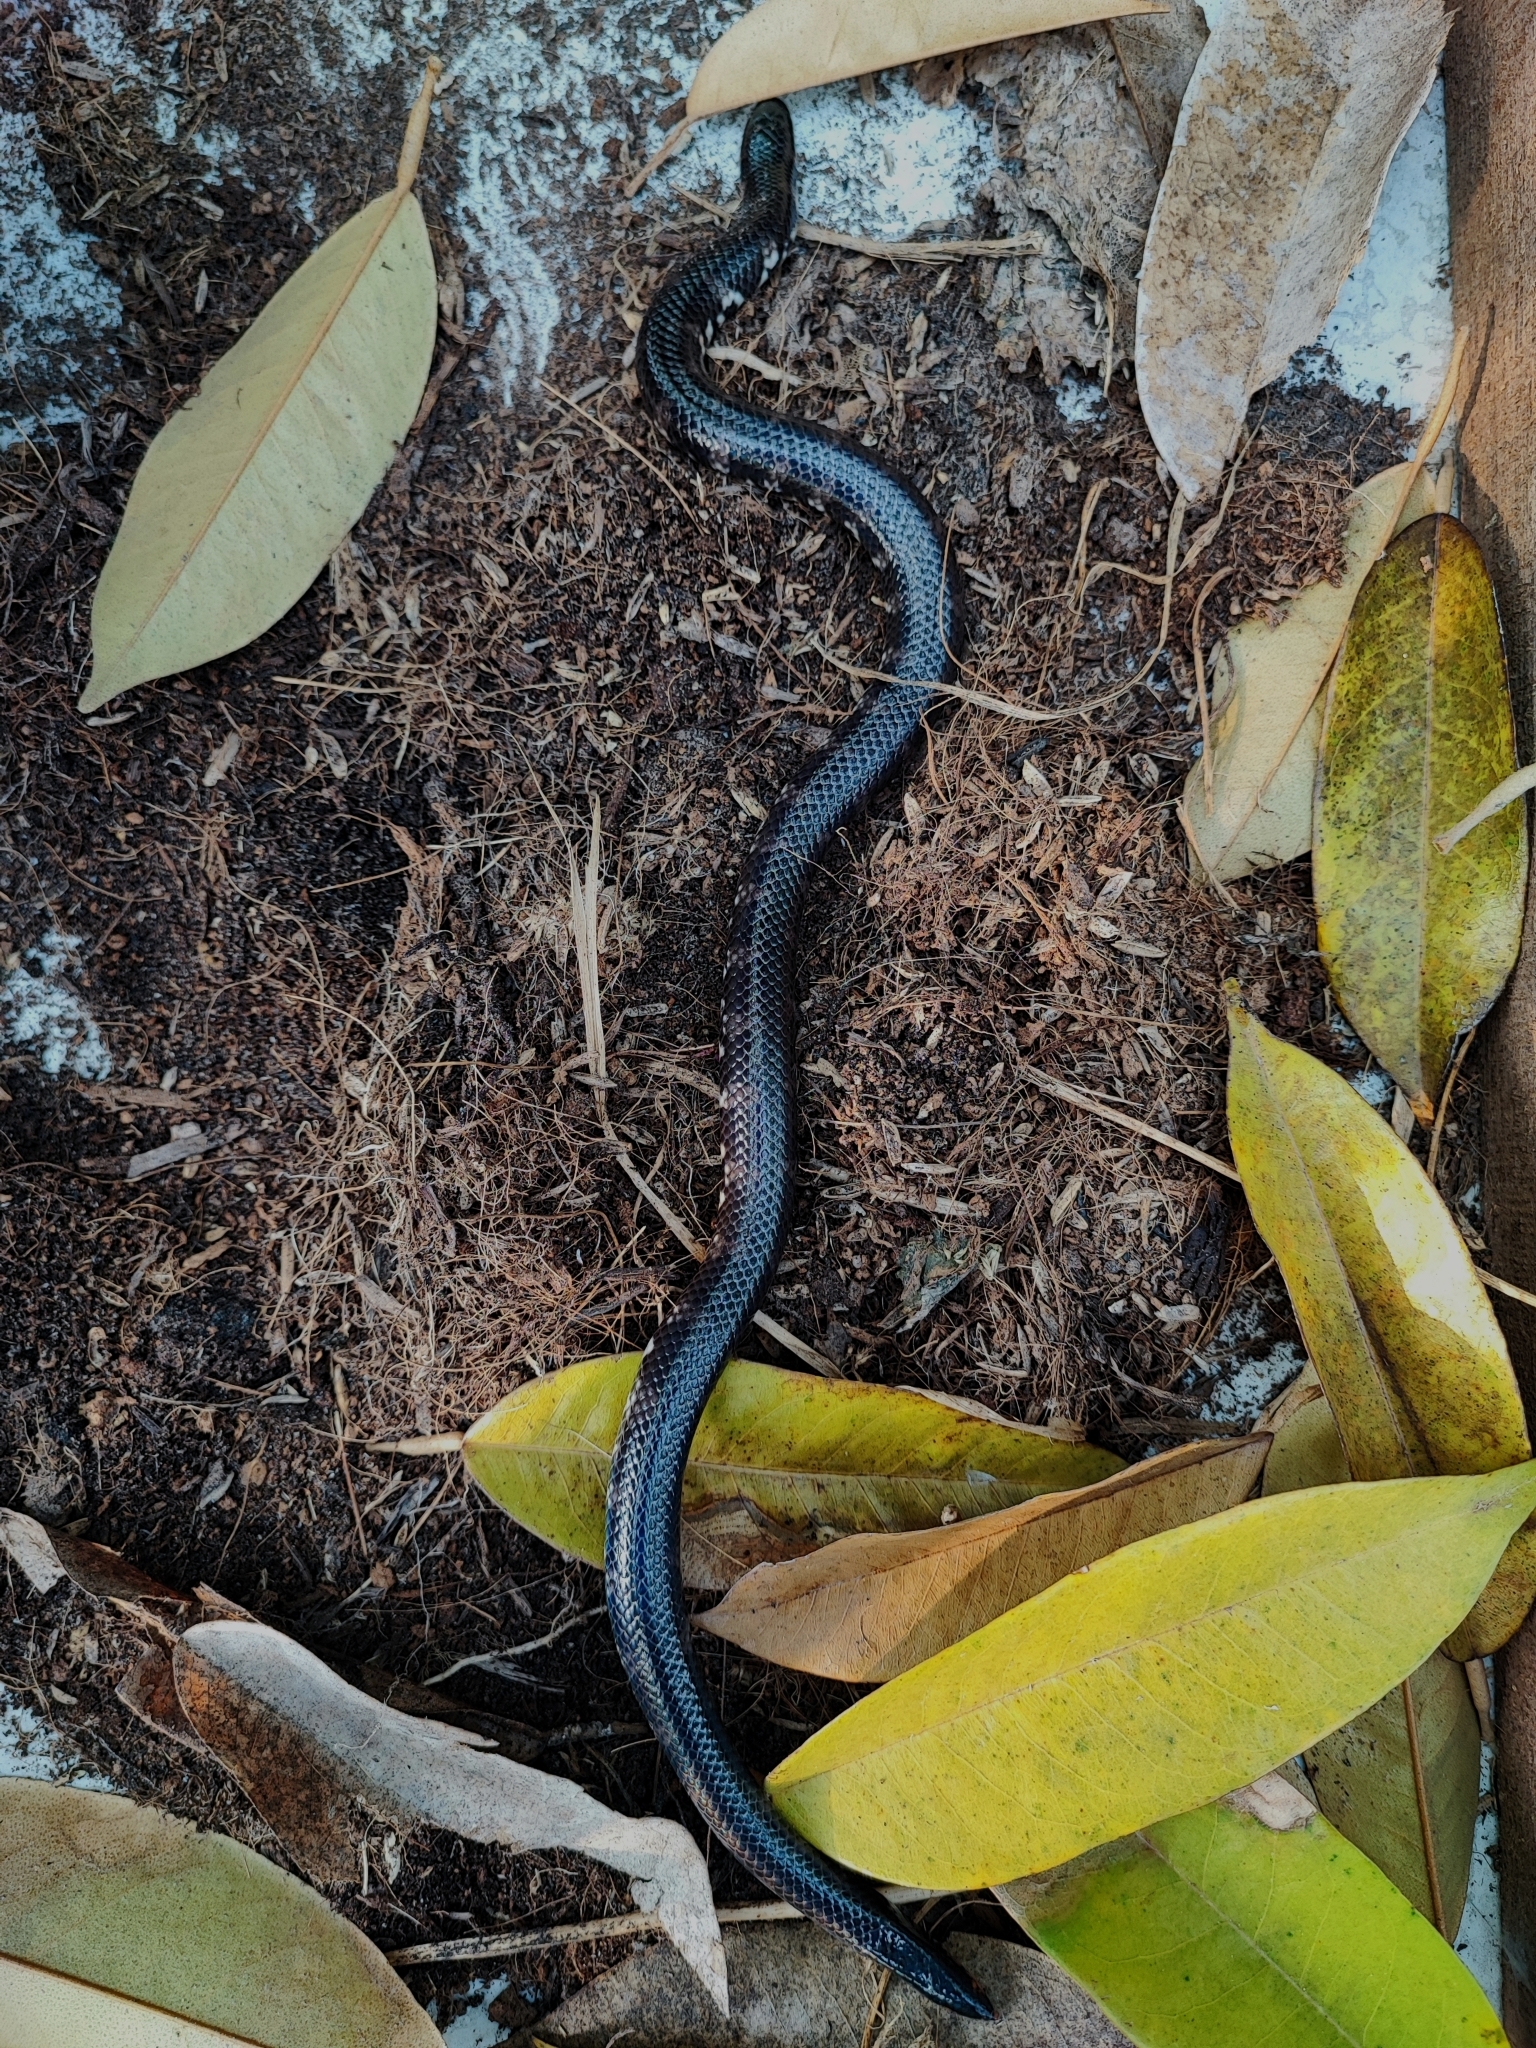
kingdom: Animalia
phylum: Chordata
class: Squamata
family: Cylindrophiidae
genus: Cylindrophis
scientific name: Cylindrophis jodiae
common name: Jodi’s pipe-snake
